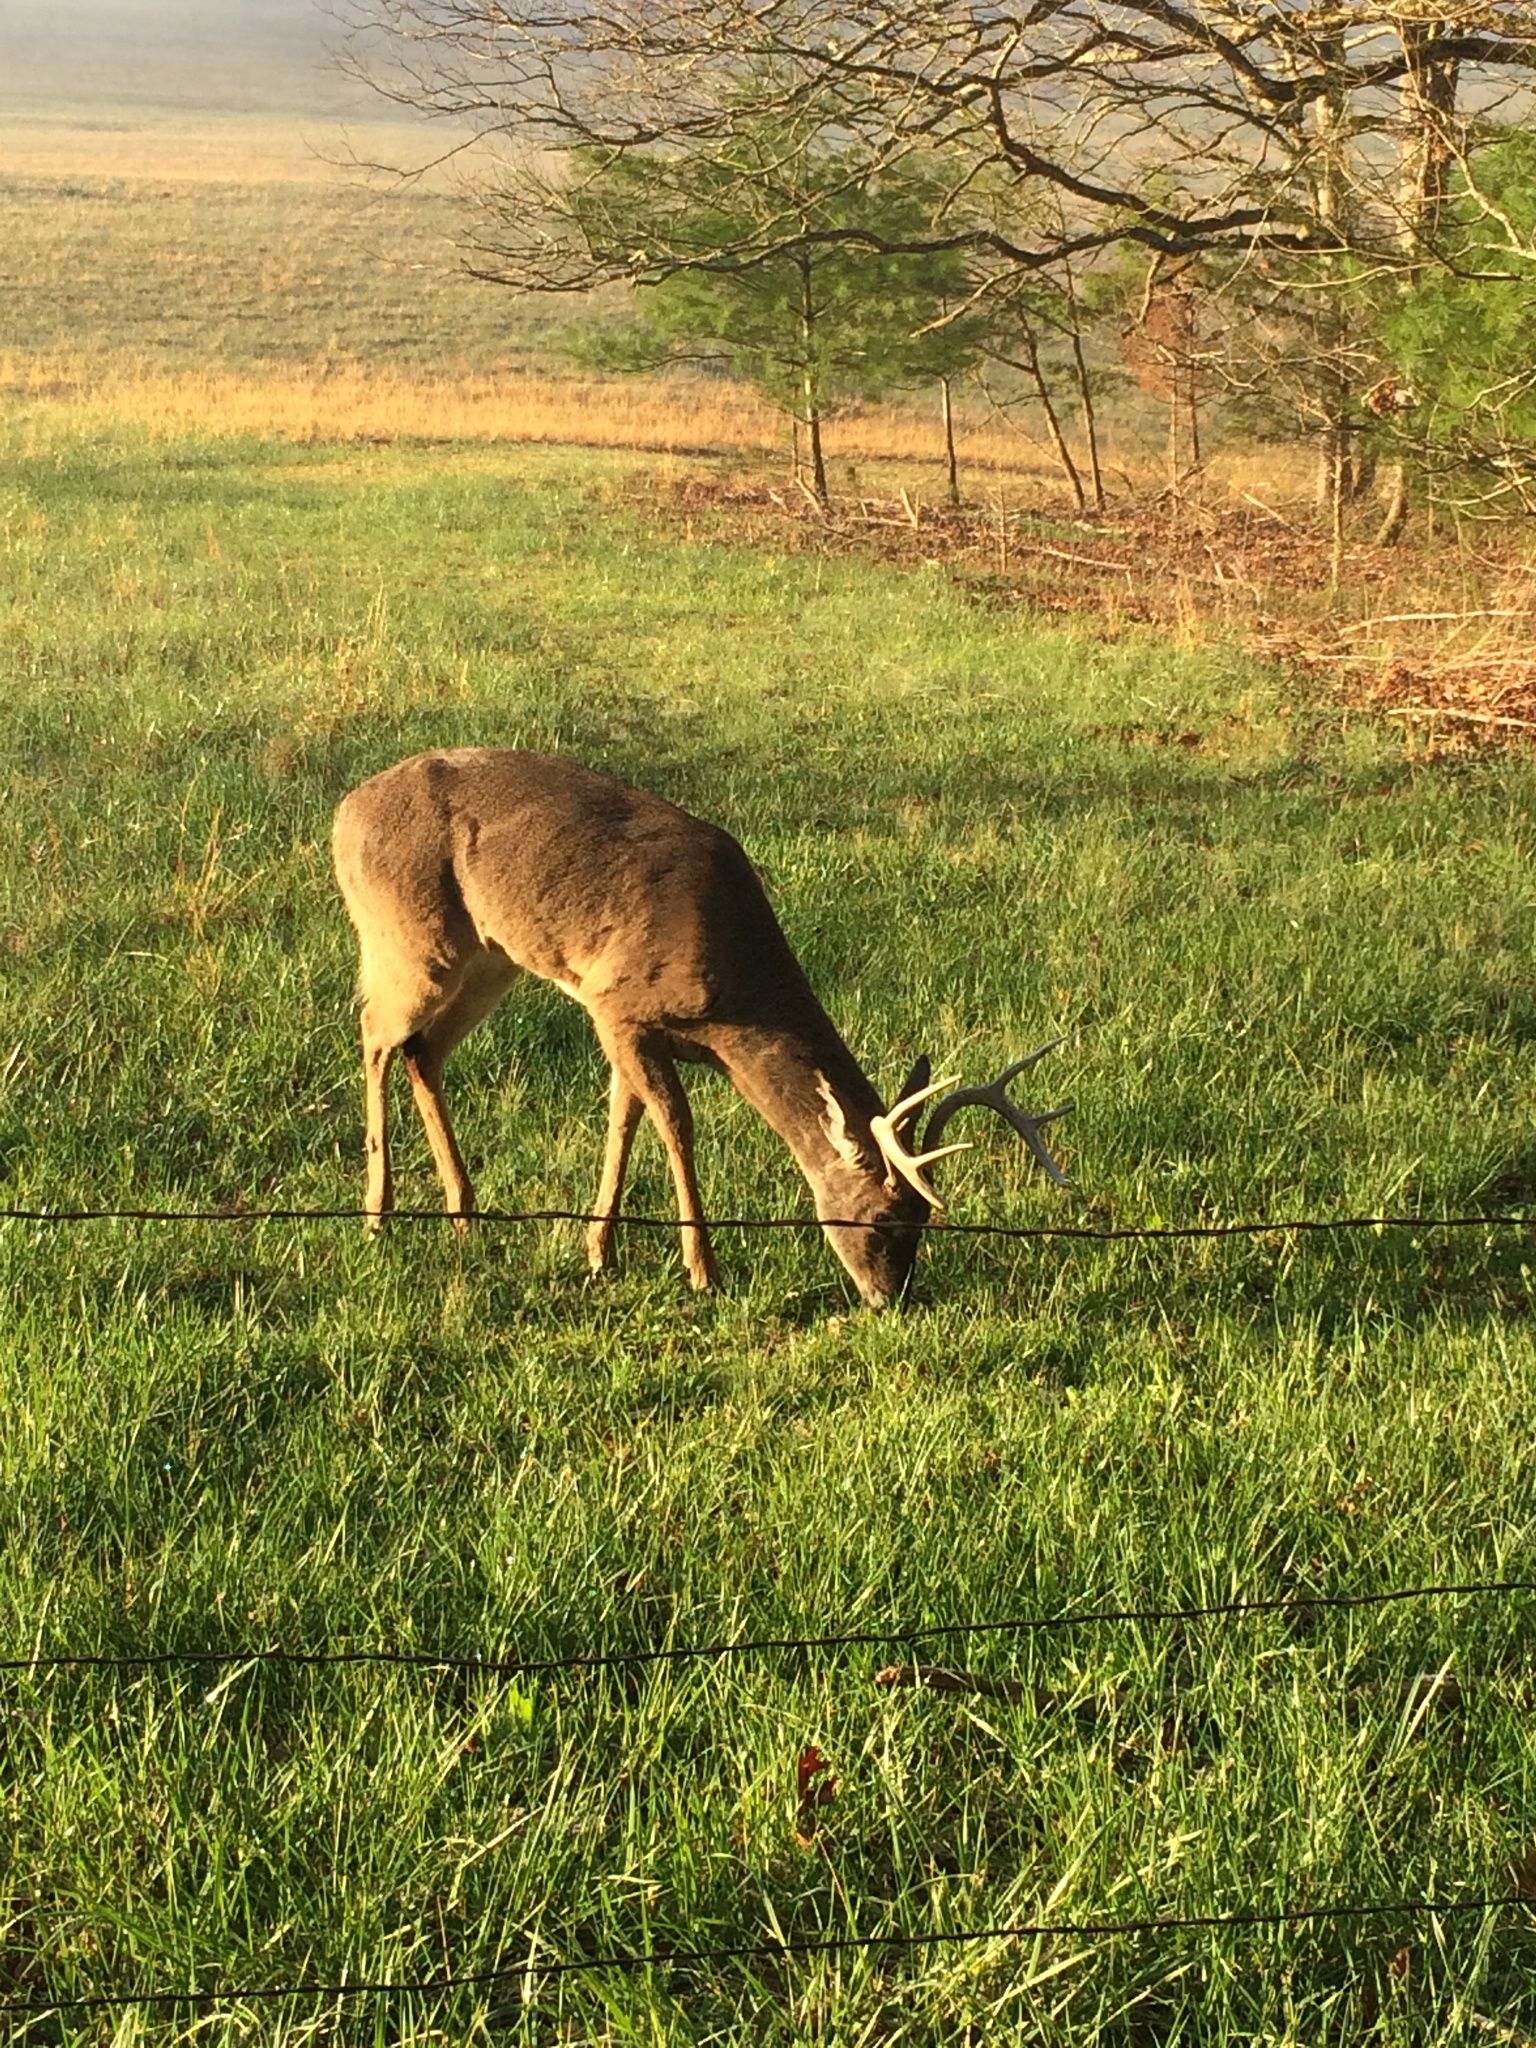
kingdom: Animalia
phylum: Chordata
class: Mammalia
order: Artiodactyla
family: Cervidae
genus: Odocoileus
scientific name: Odocoileus virginianus
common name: White-tailed deer
